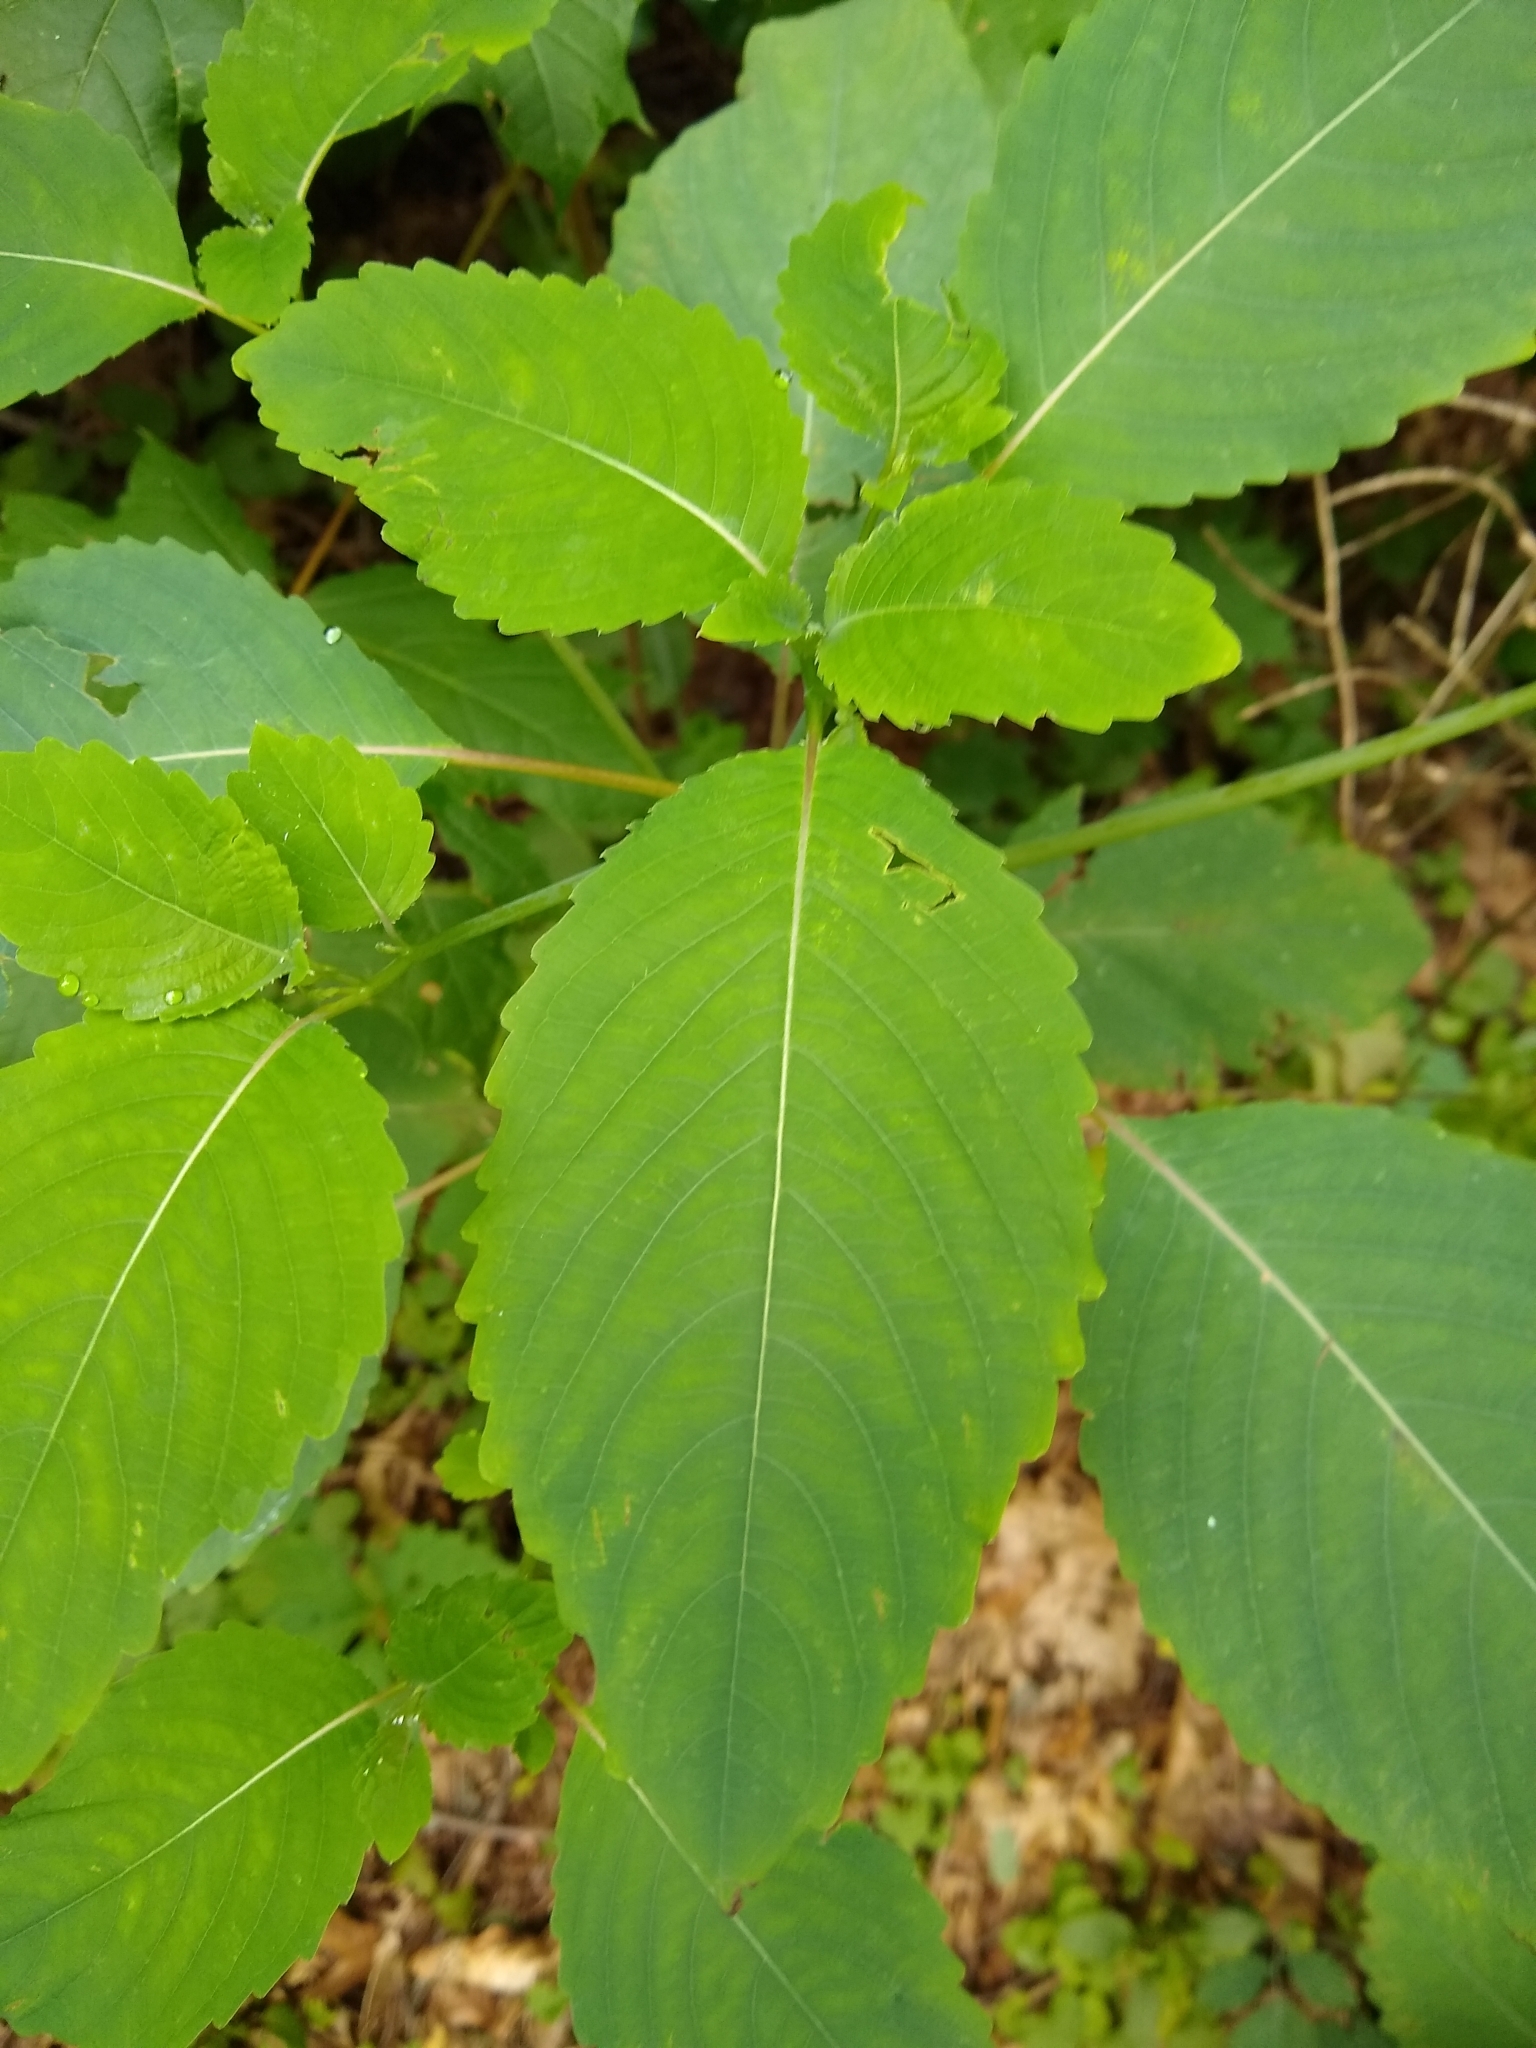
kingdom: Plantae
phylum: Tracheophyta
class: Magnoliopsida
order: Ericales
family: Balsaminaceae
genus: Impatiens
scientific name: Impatiens pallida
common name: Pale snapweed
